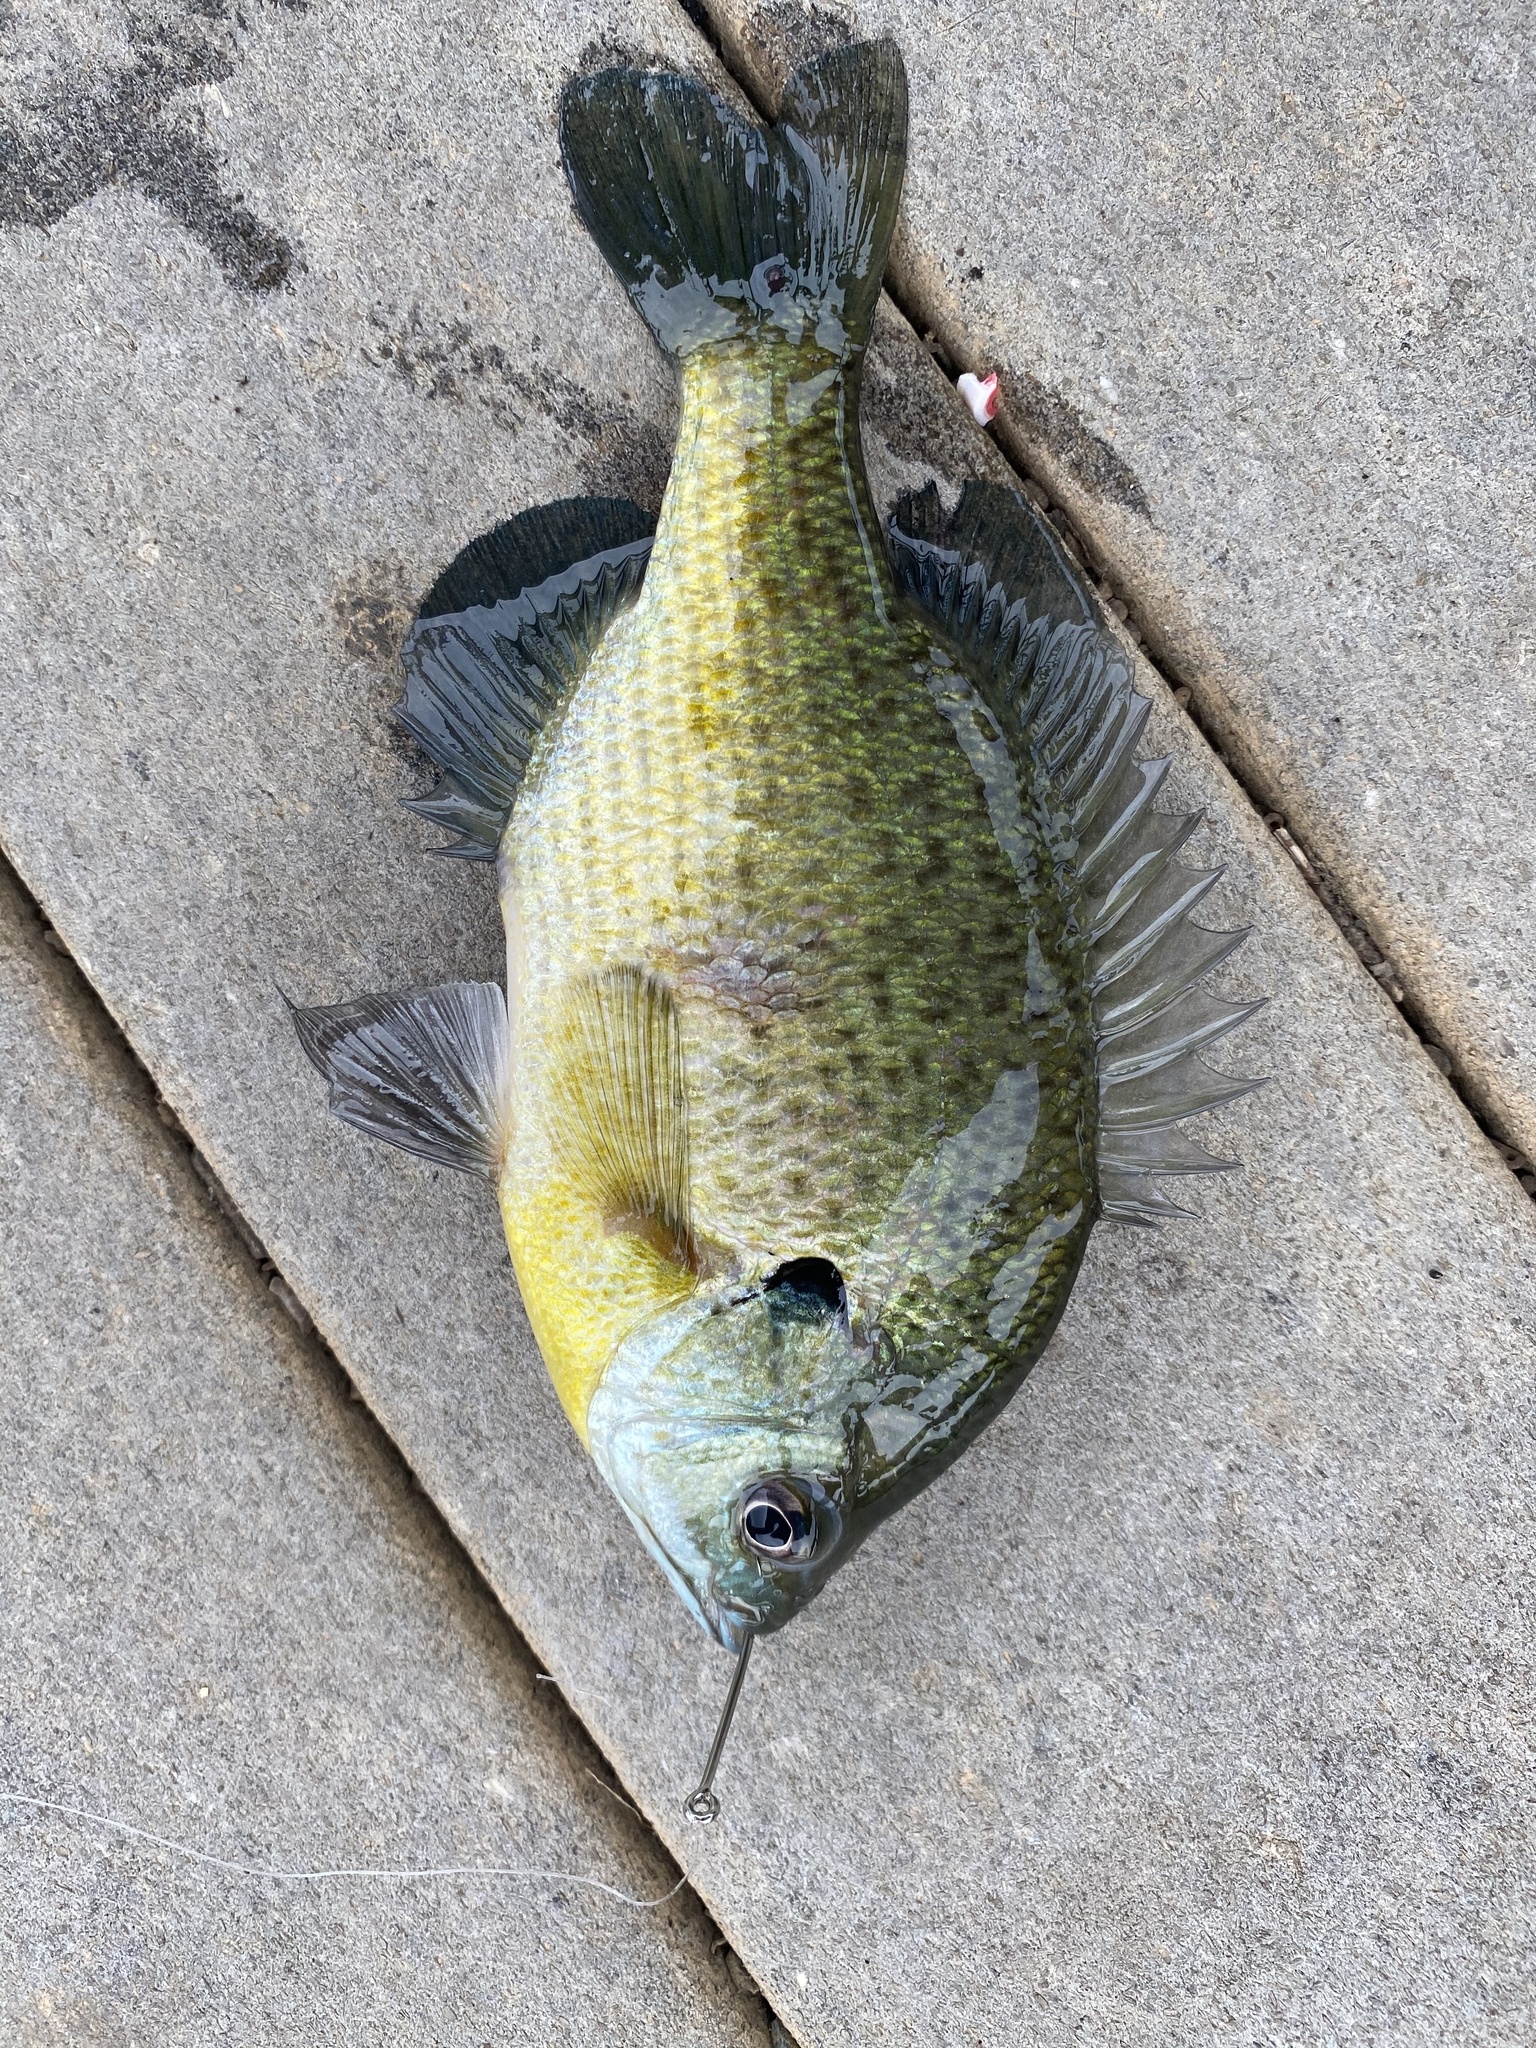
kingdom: Animalia
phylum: Chordata
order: Perciformes
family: Centrarchidae
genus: Lepomis
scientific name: Lepomis macrochirus
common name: Bluegill
